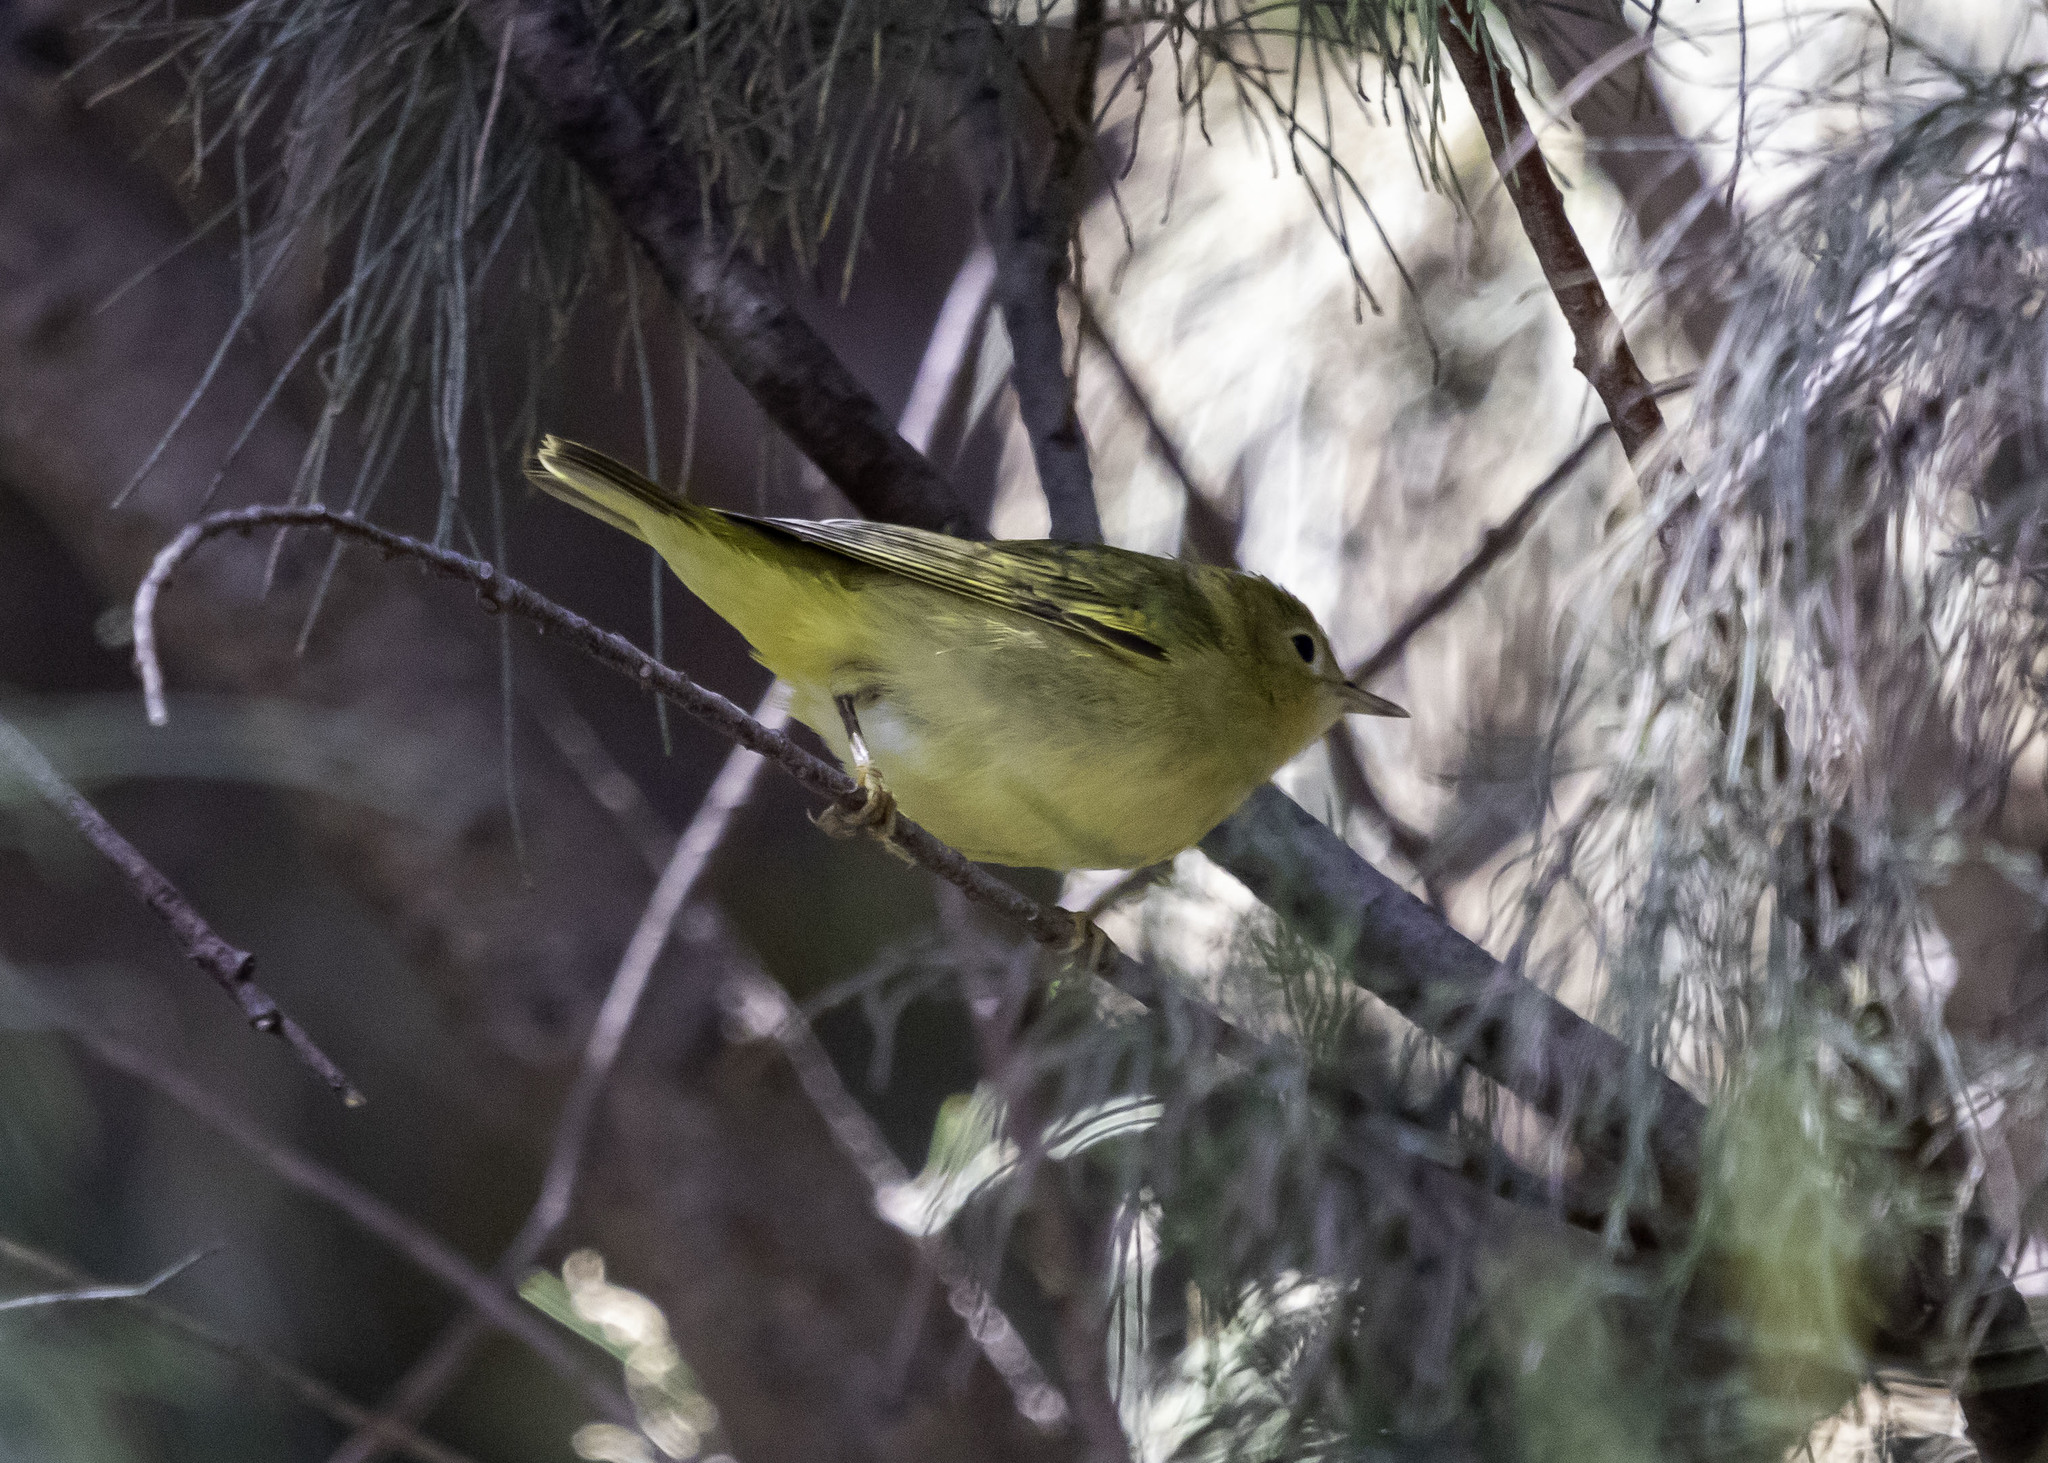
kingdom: Animalia
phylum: Chordata
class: Aves
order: Passeriformes
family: Parulidae
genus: Setophaga
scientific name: Setophaga petechia
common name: Yellow warbler
